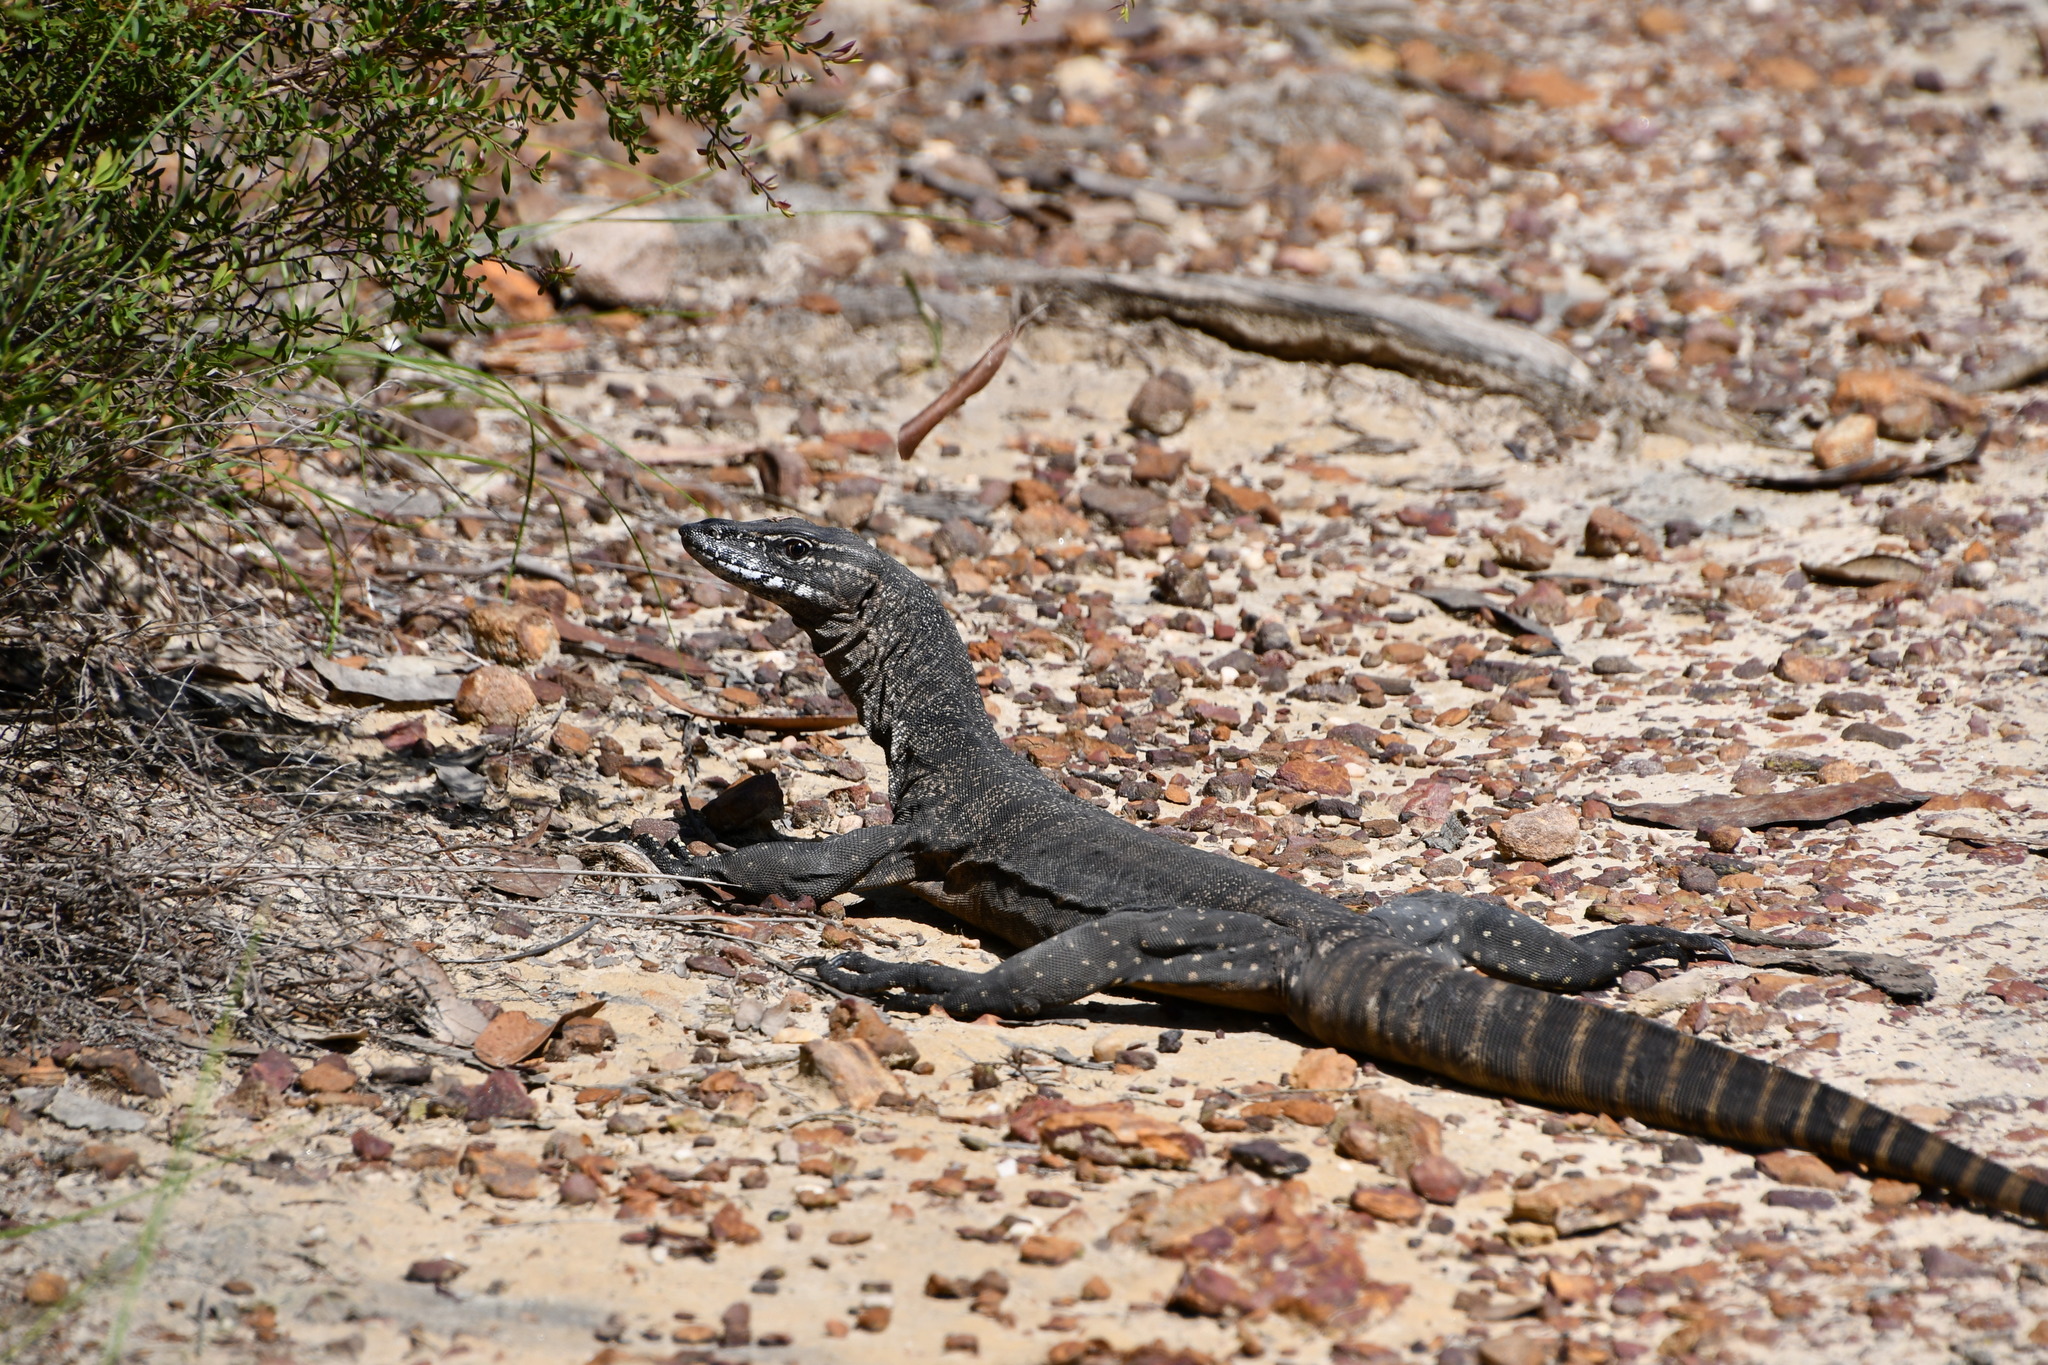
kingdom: Animalia
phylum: Chordata
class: Squamata
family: Varanidae
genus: Varanus
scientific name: Varanus rosenbergi
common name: Heath monitor
